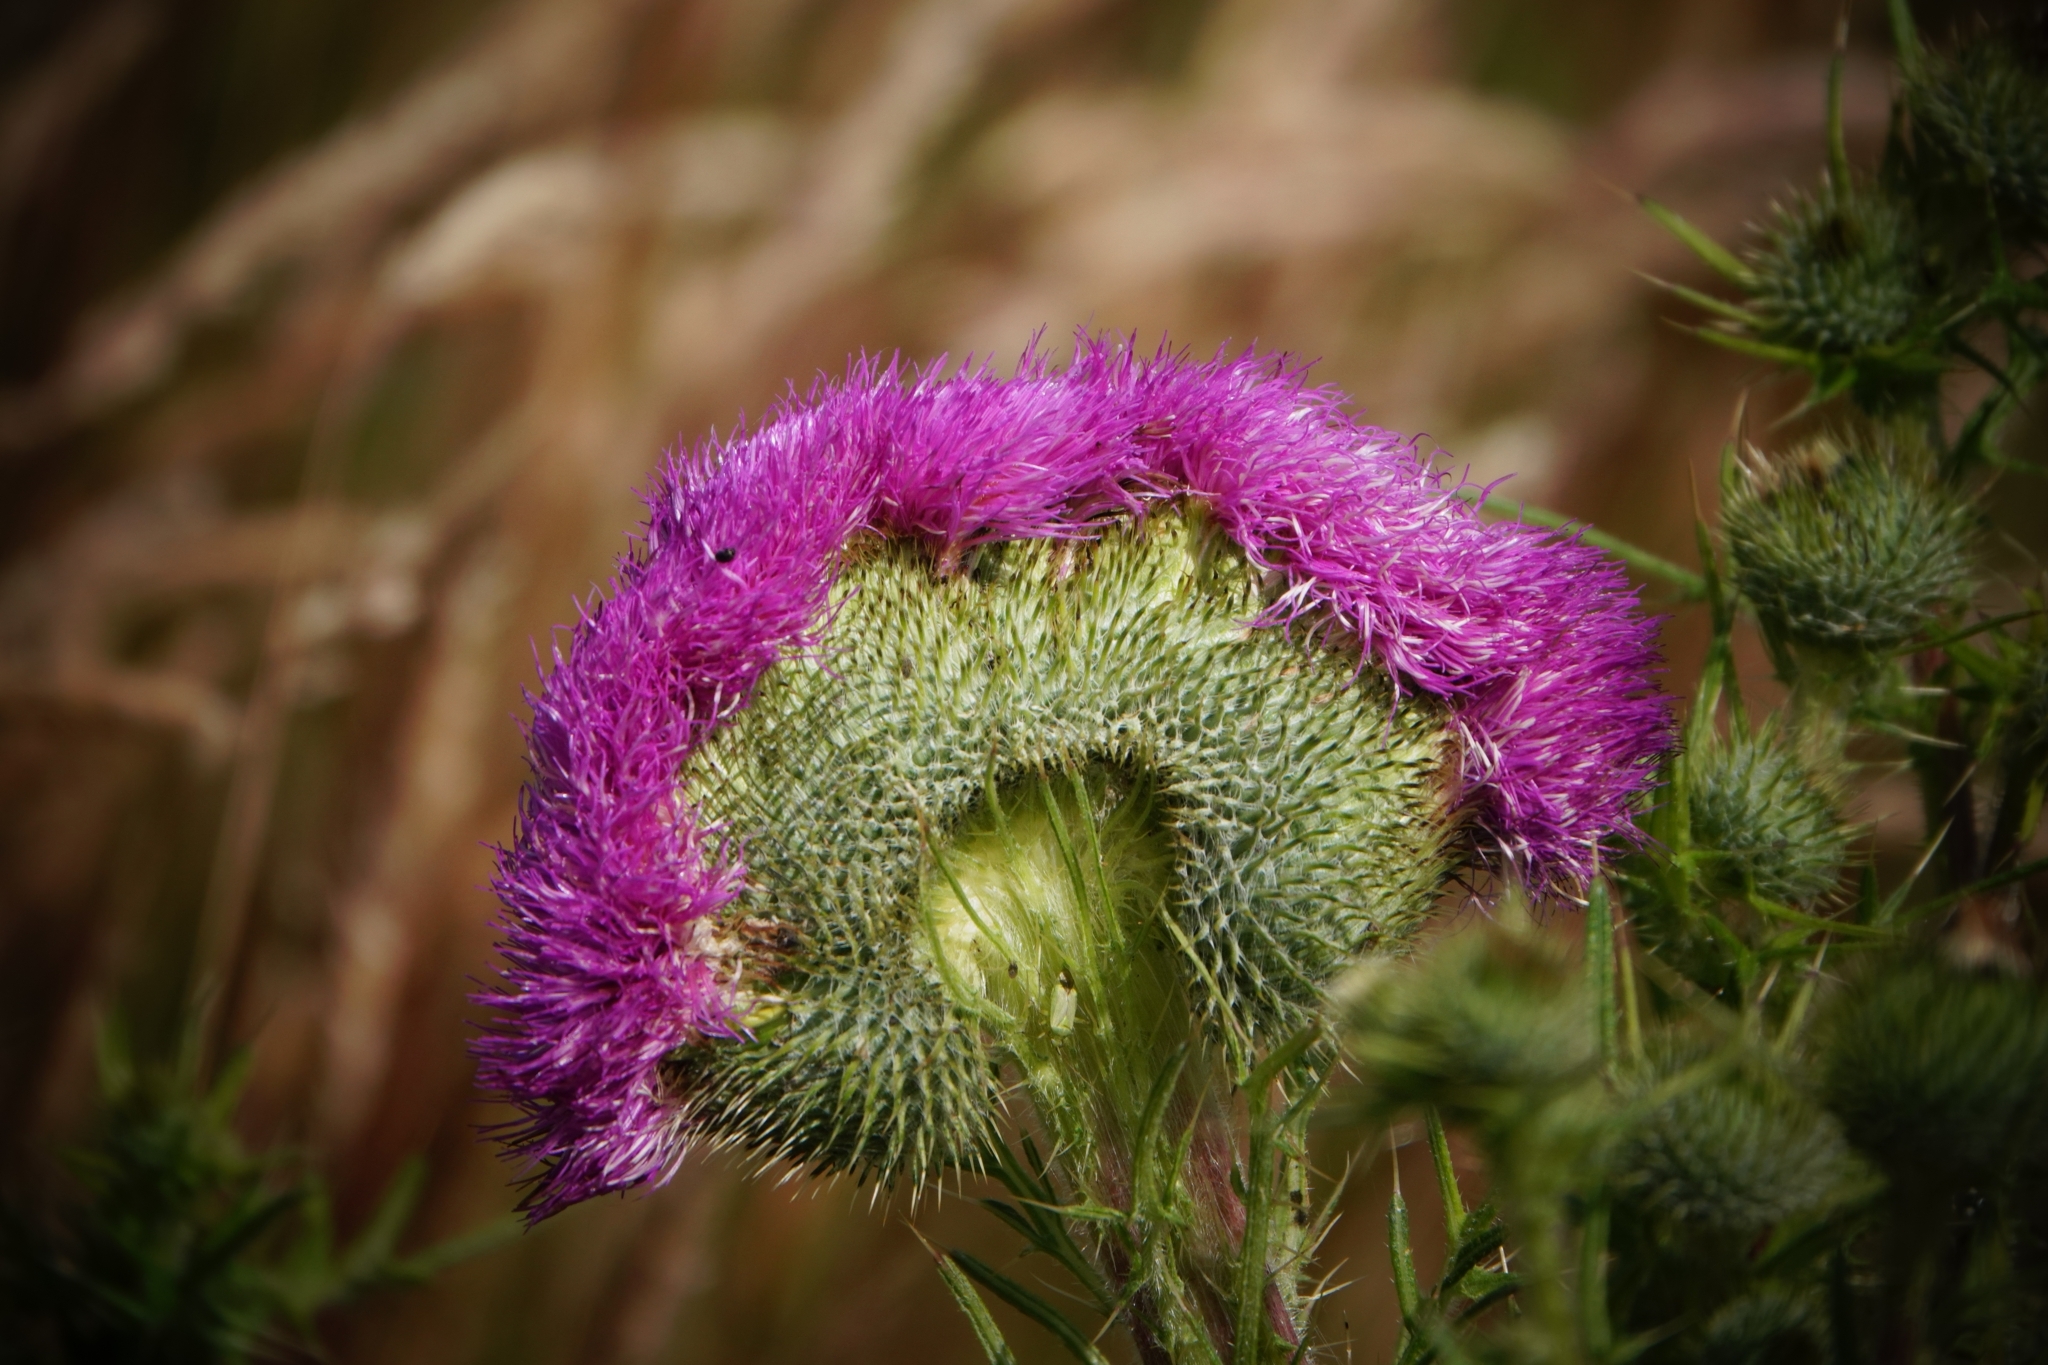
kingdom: Plantae
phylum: Tracheophyta
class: Magnoliopsida
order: Asterales
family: Asteraceae
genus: Cirsium
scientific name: Cirsium vulgare
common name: Bull thistle
